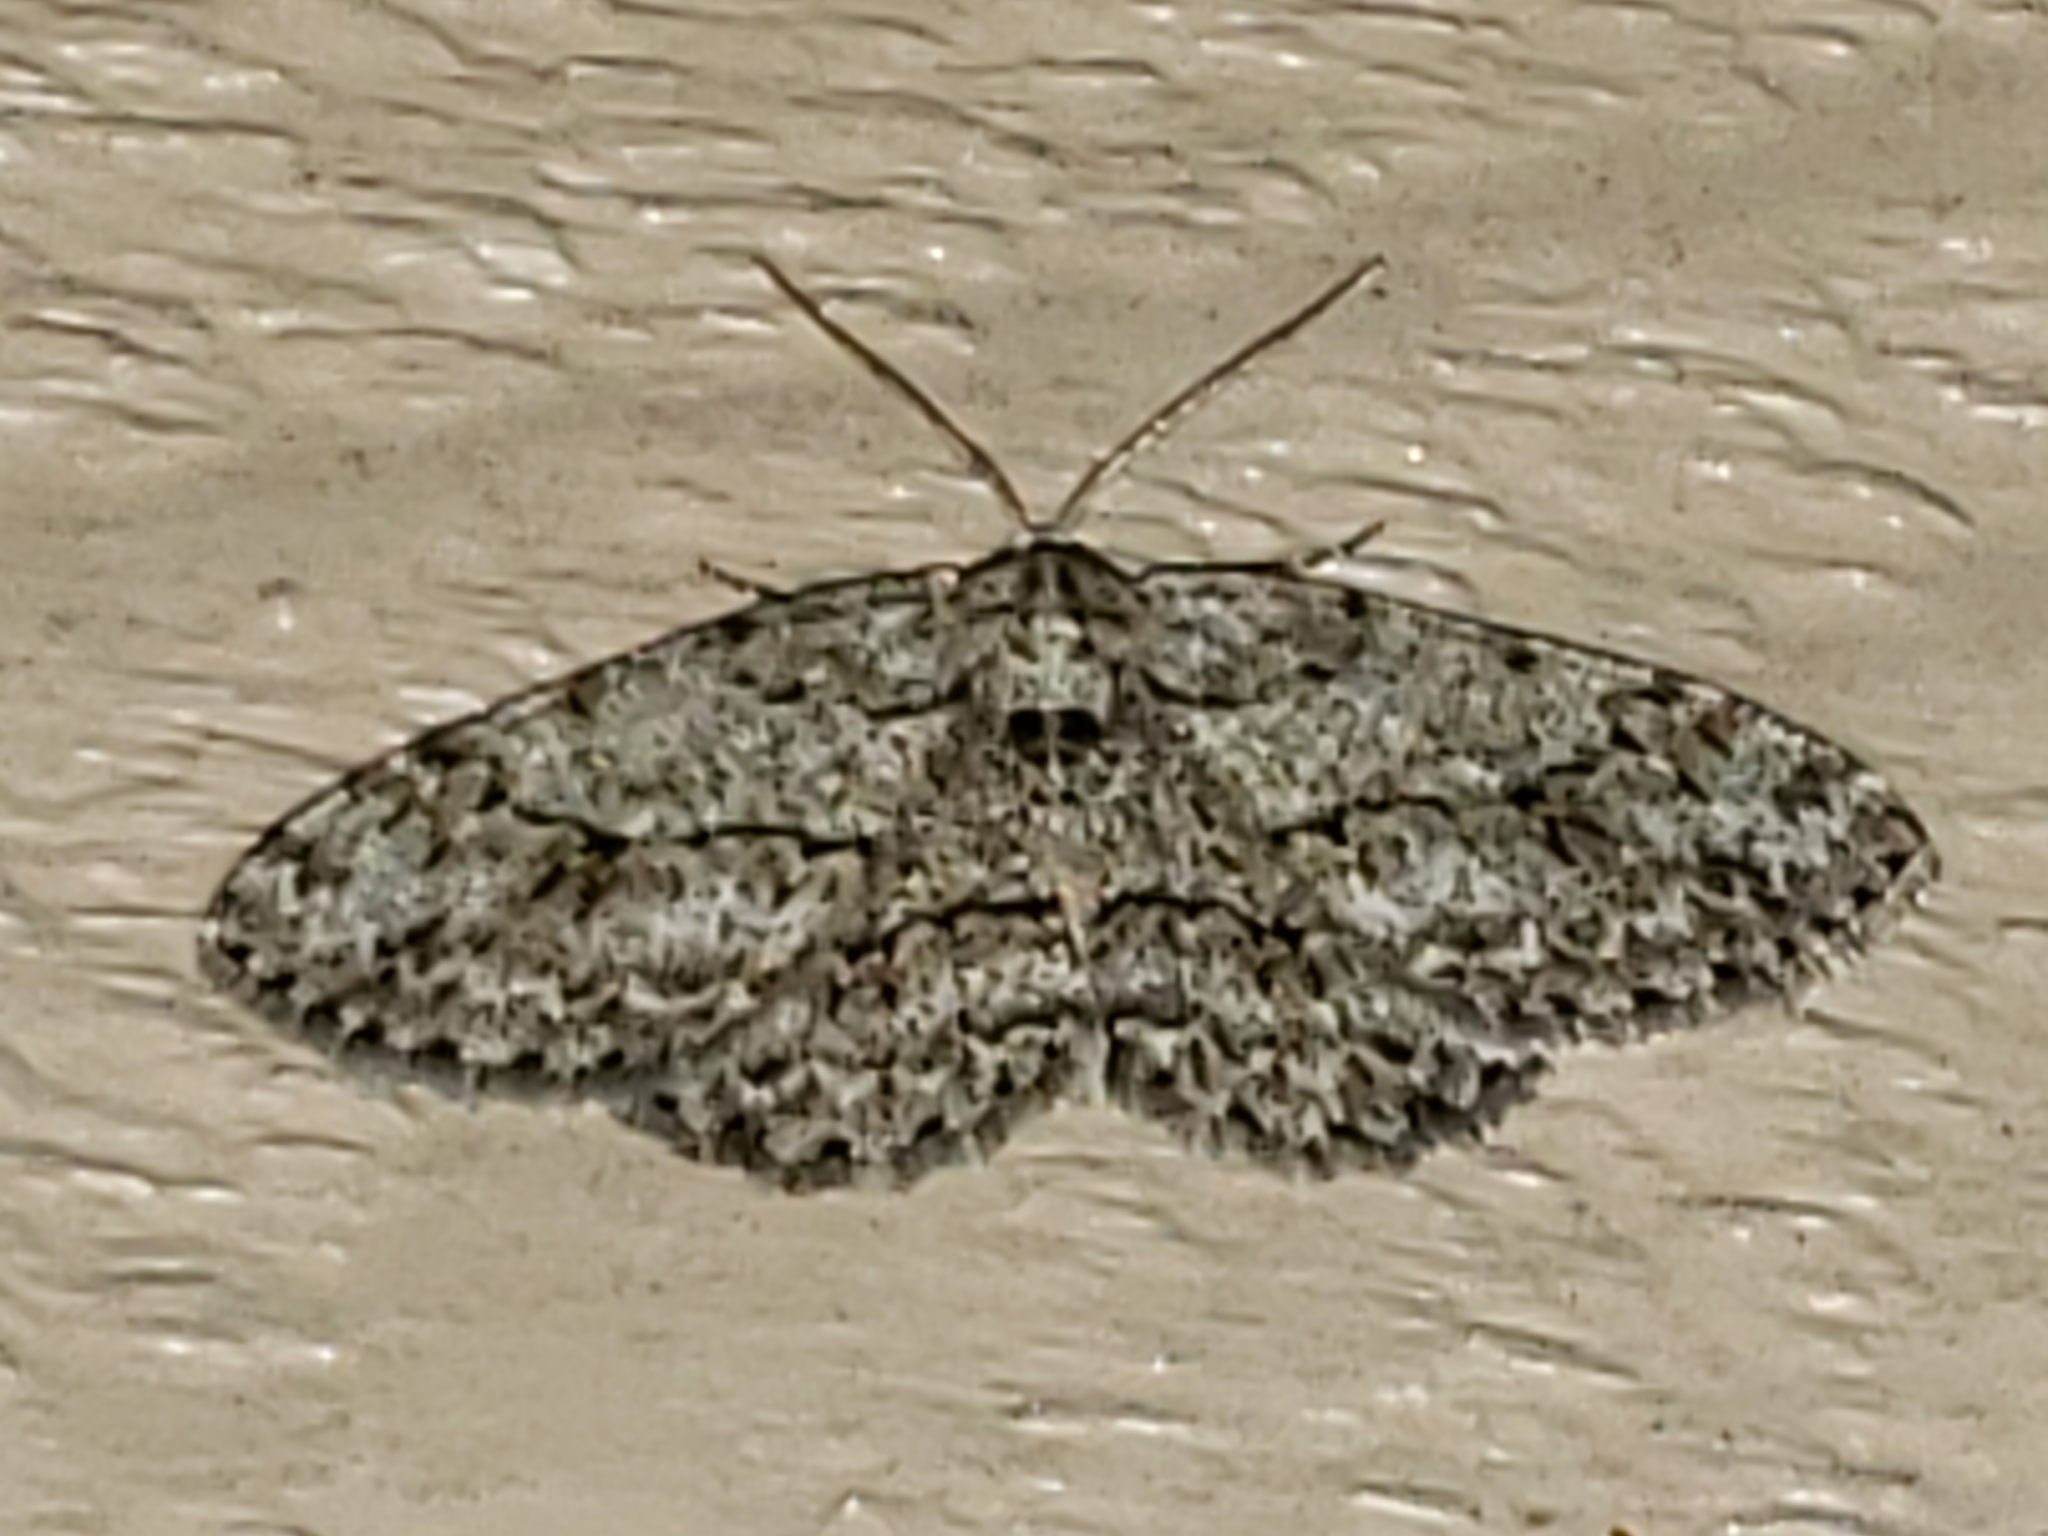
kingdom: Animalia
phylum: Arthropoda
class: Insecta
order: Lepidoptera
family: Geometridae
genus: Ectropis
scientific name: Ectropis crepuscularia
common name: Engrailed
